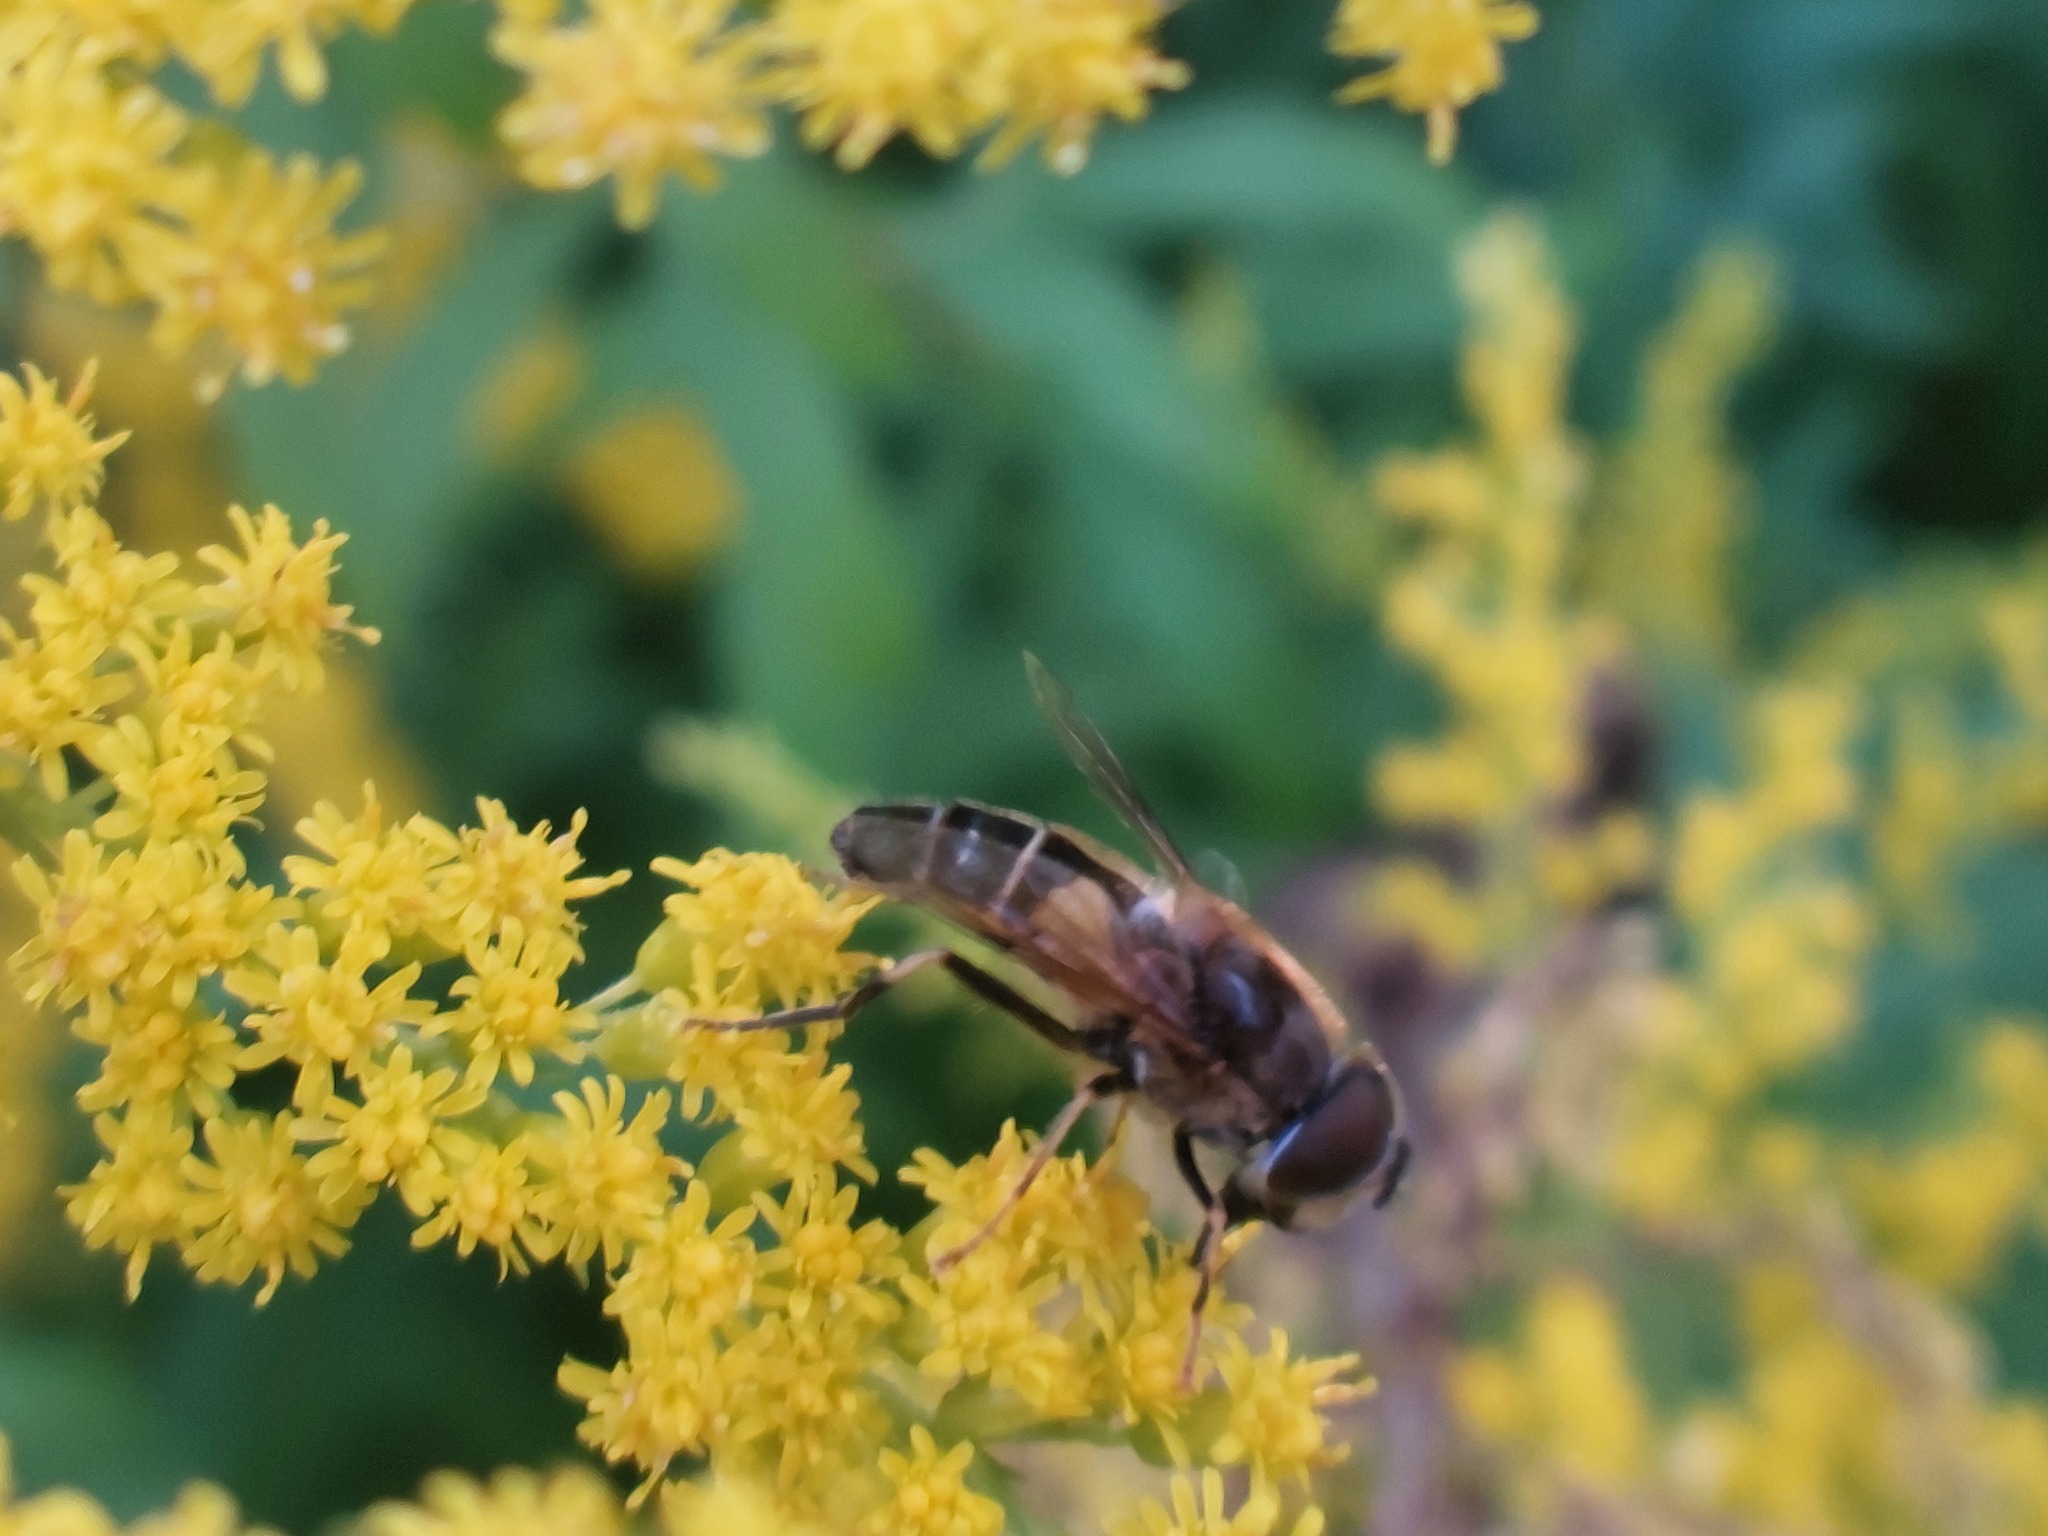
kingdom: Animalia
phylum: Arthropoda
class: Insecta
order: Diptera
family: Syrphidae
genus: Eristalis
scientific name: Eristalis pertinax
